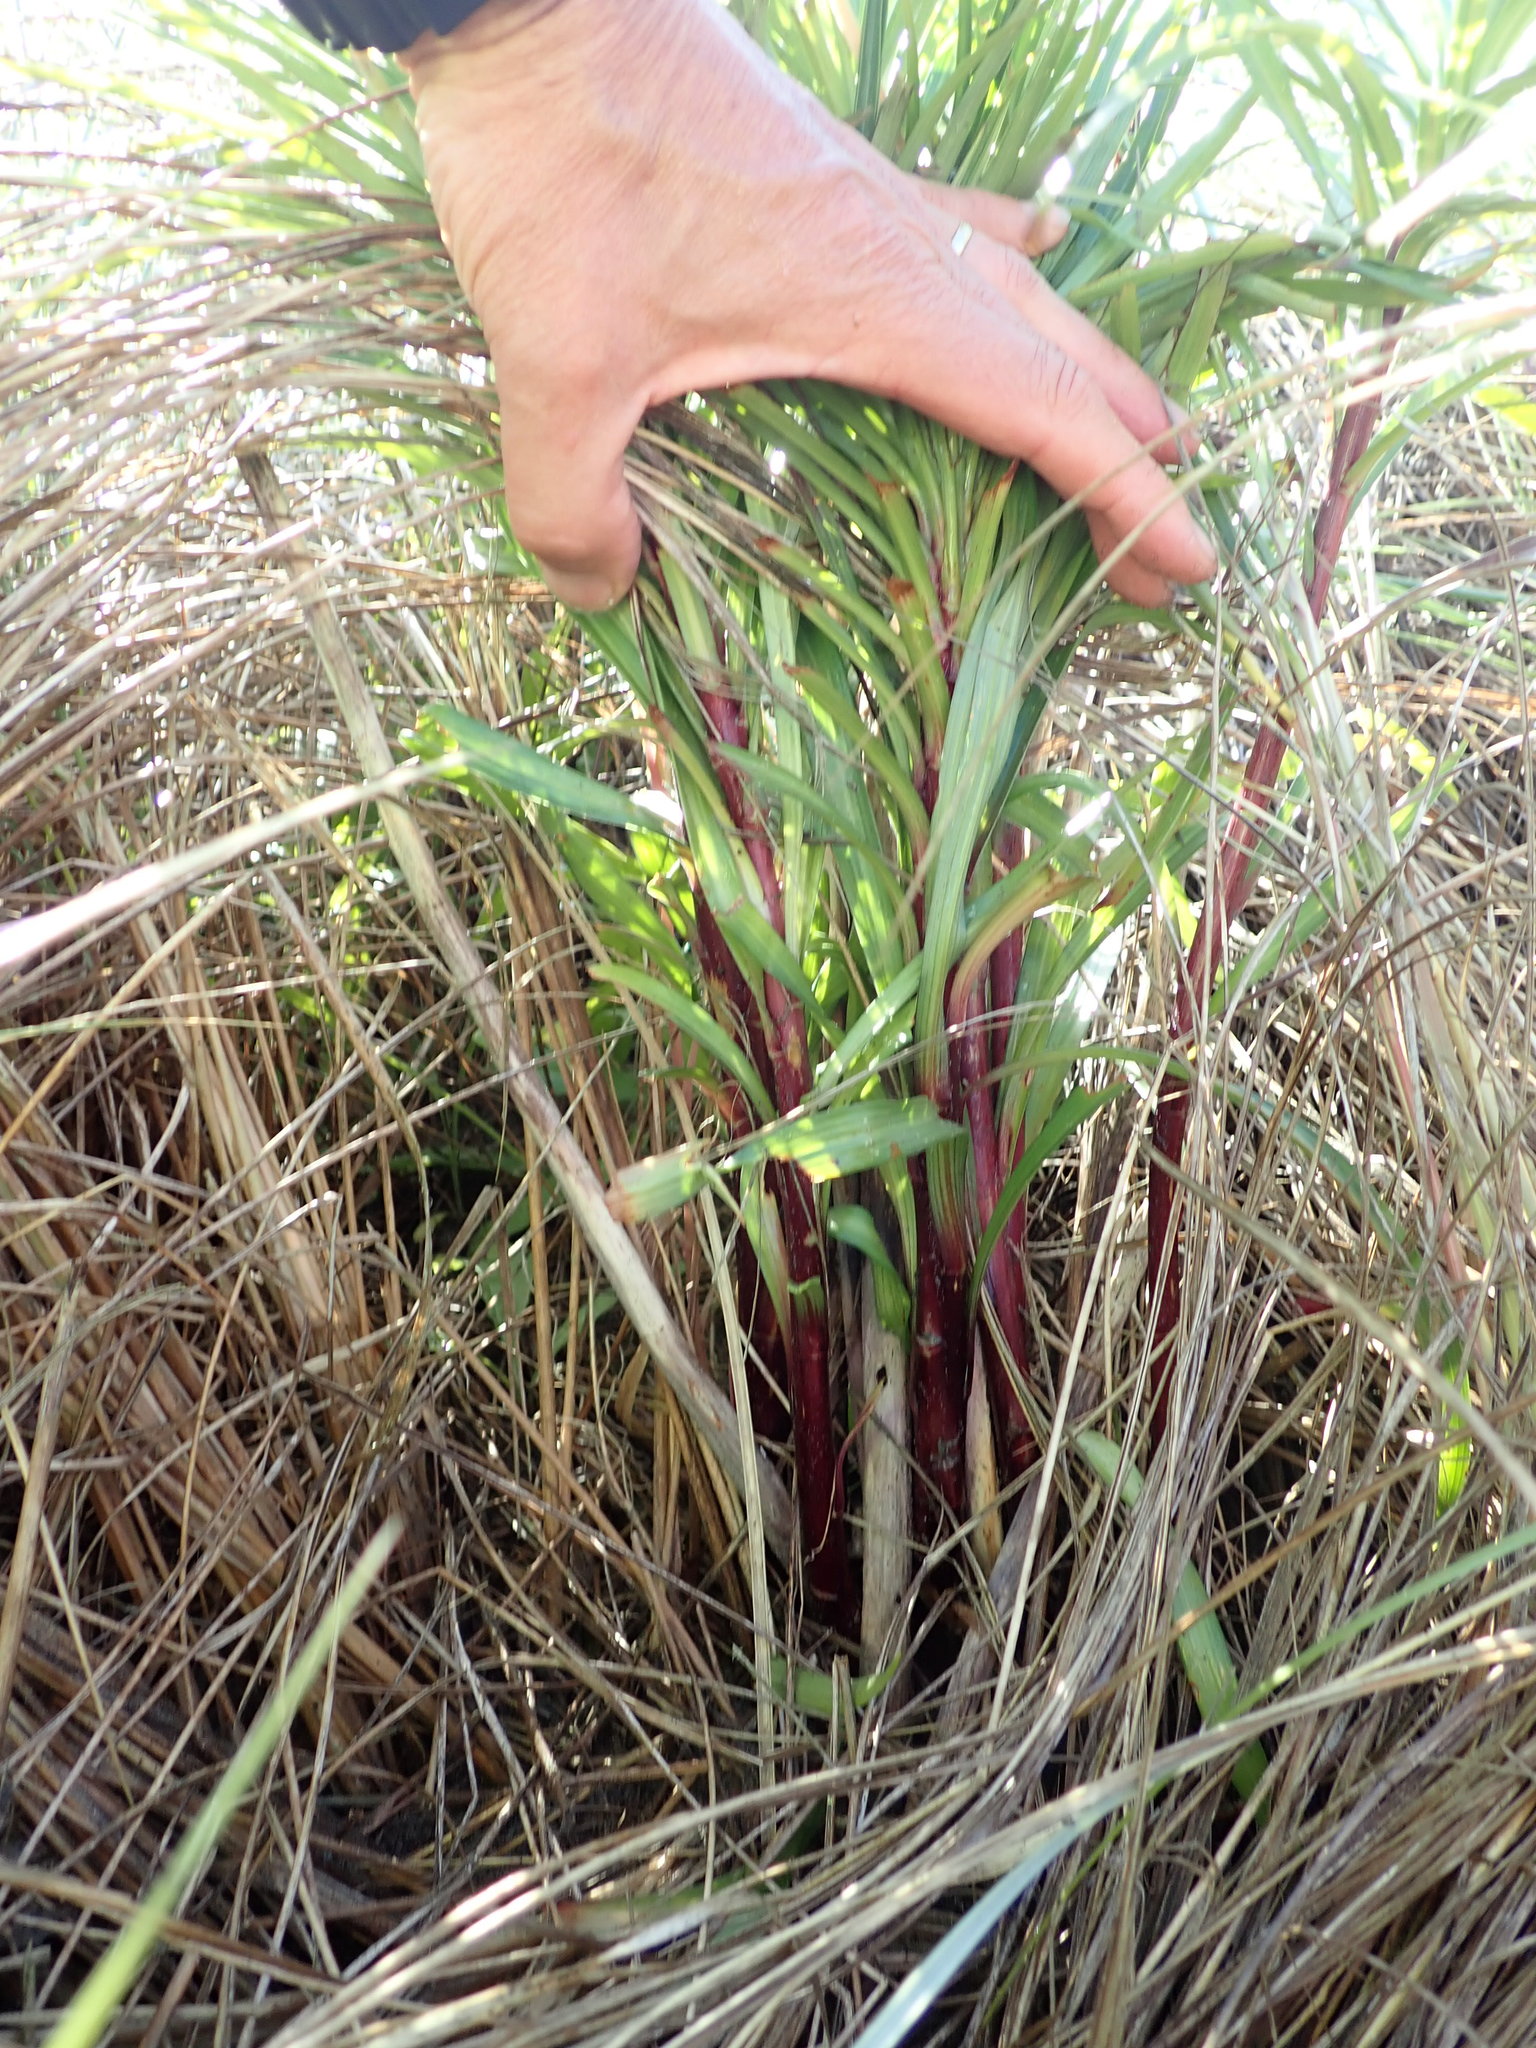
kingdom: Plantae
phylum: Tracheophyta
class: Liliopsida
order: Liliales
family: Liliaceae
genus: Lilium
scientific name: Lilium formosanum
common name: Formosa lily
